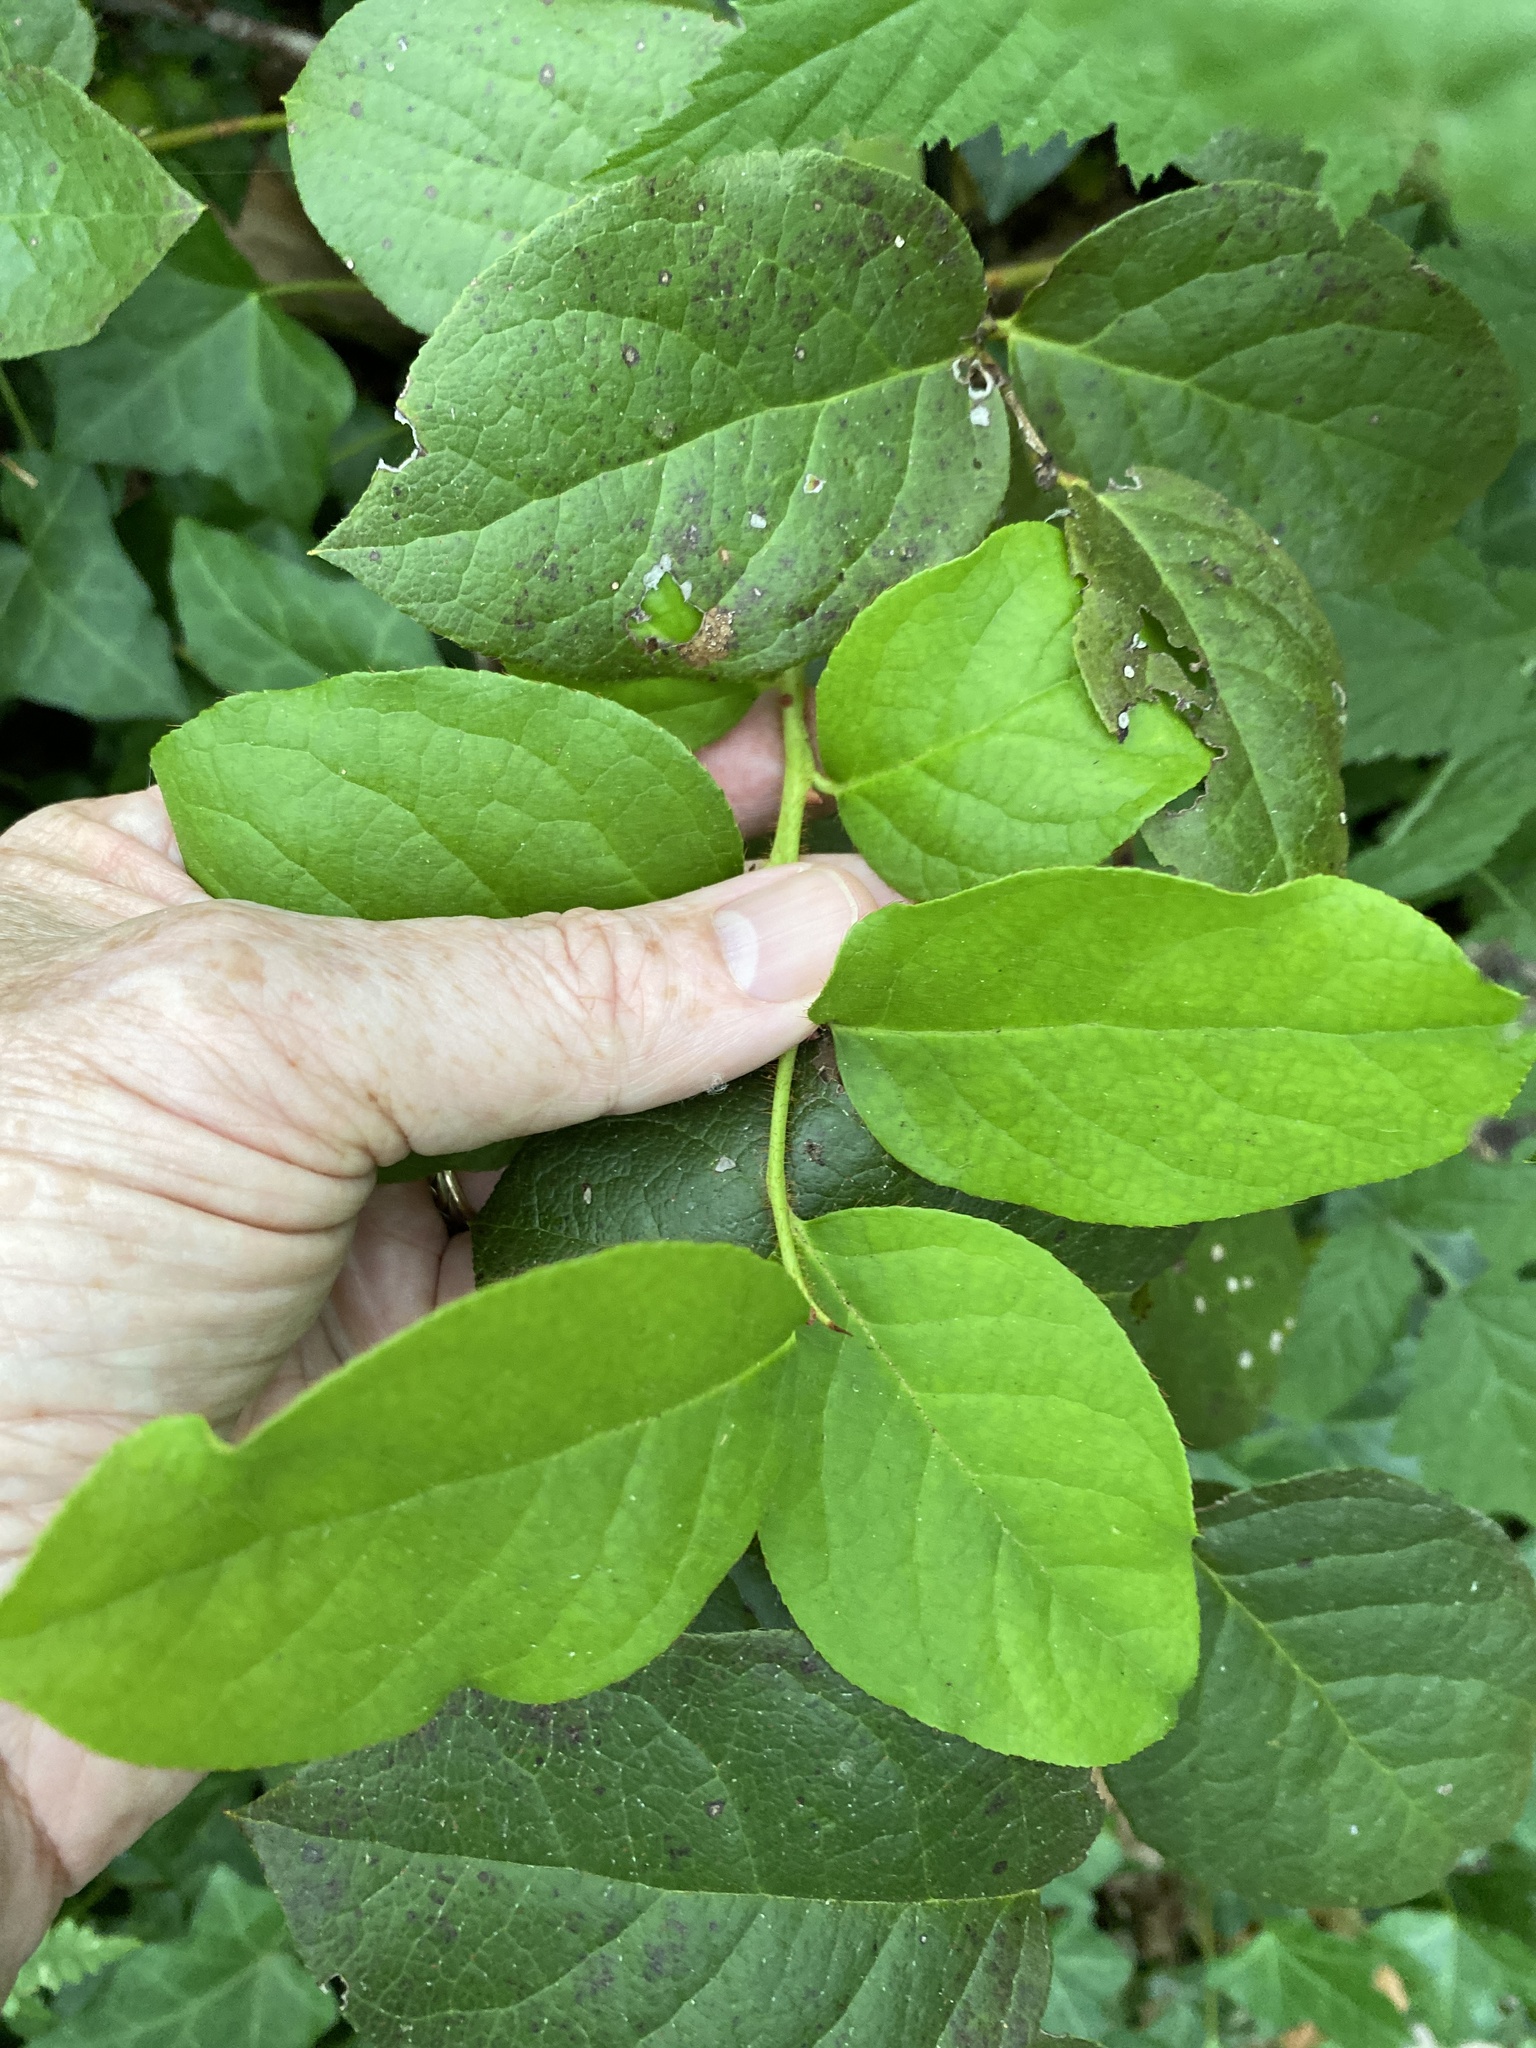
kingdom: Plantae
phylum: Tracheophyta
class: Magnoliopsida
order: Ericales
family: Ericaceae
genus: Gaultheria
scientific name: Gaultheria shallon
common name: Shallon
